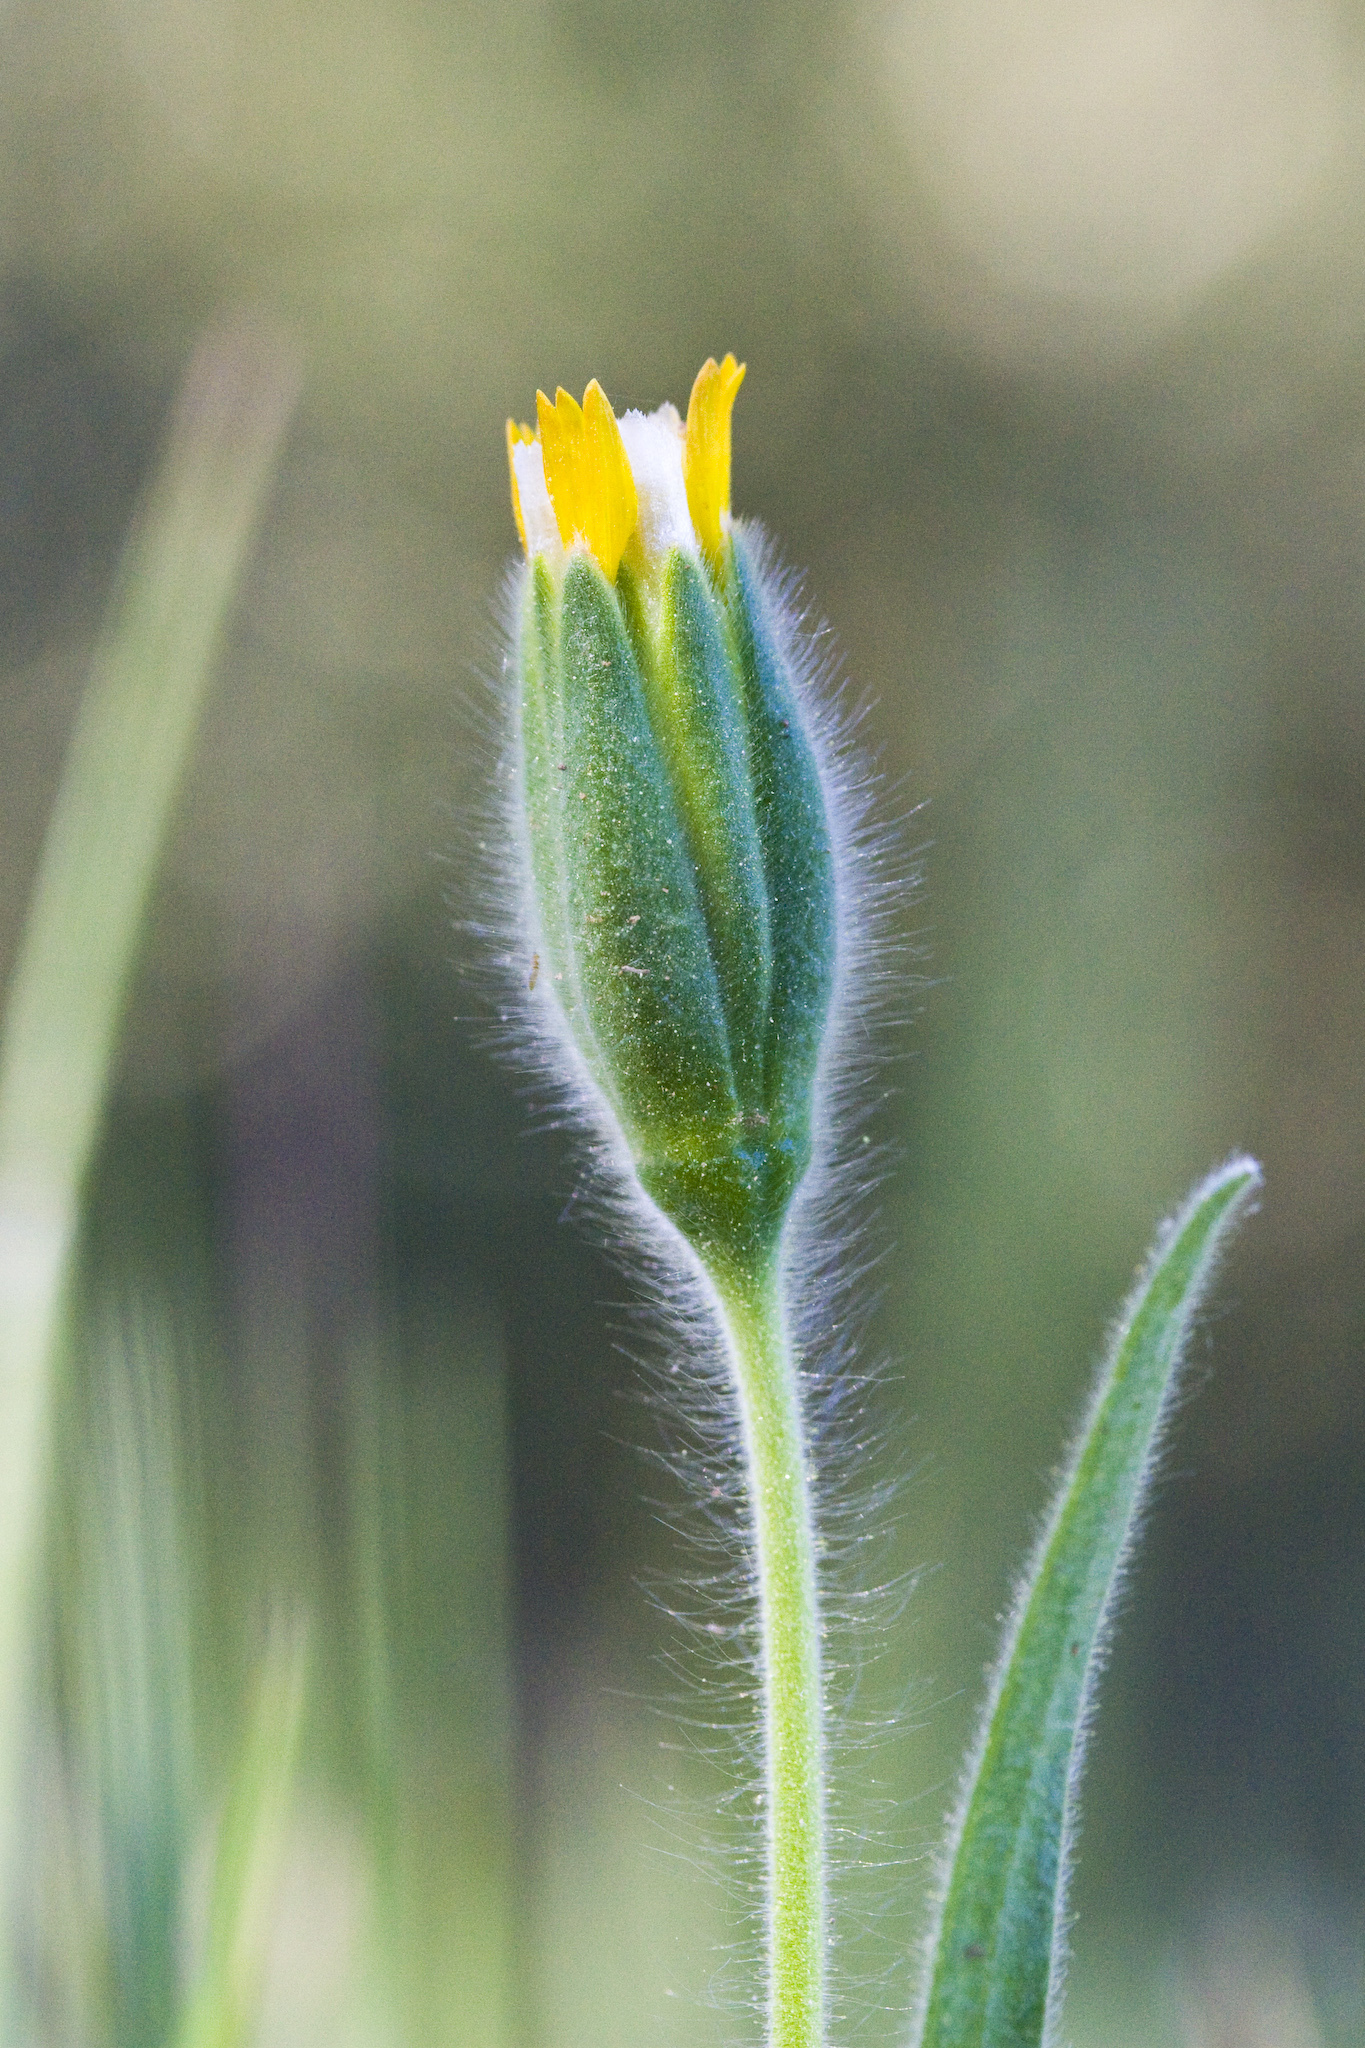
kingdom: Plantae
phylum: Tracheophyta
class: Magnoliopsida
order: Asterales
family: Asteraceae
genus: Achyrachaena
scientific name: Achyrachaena mollis
